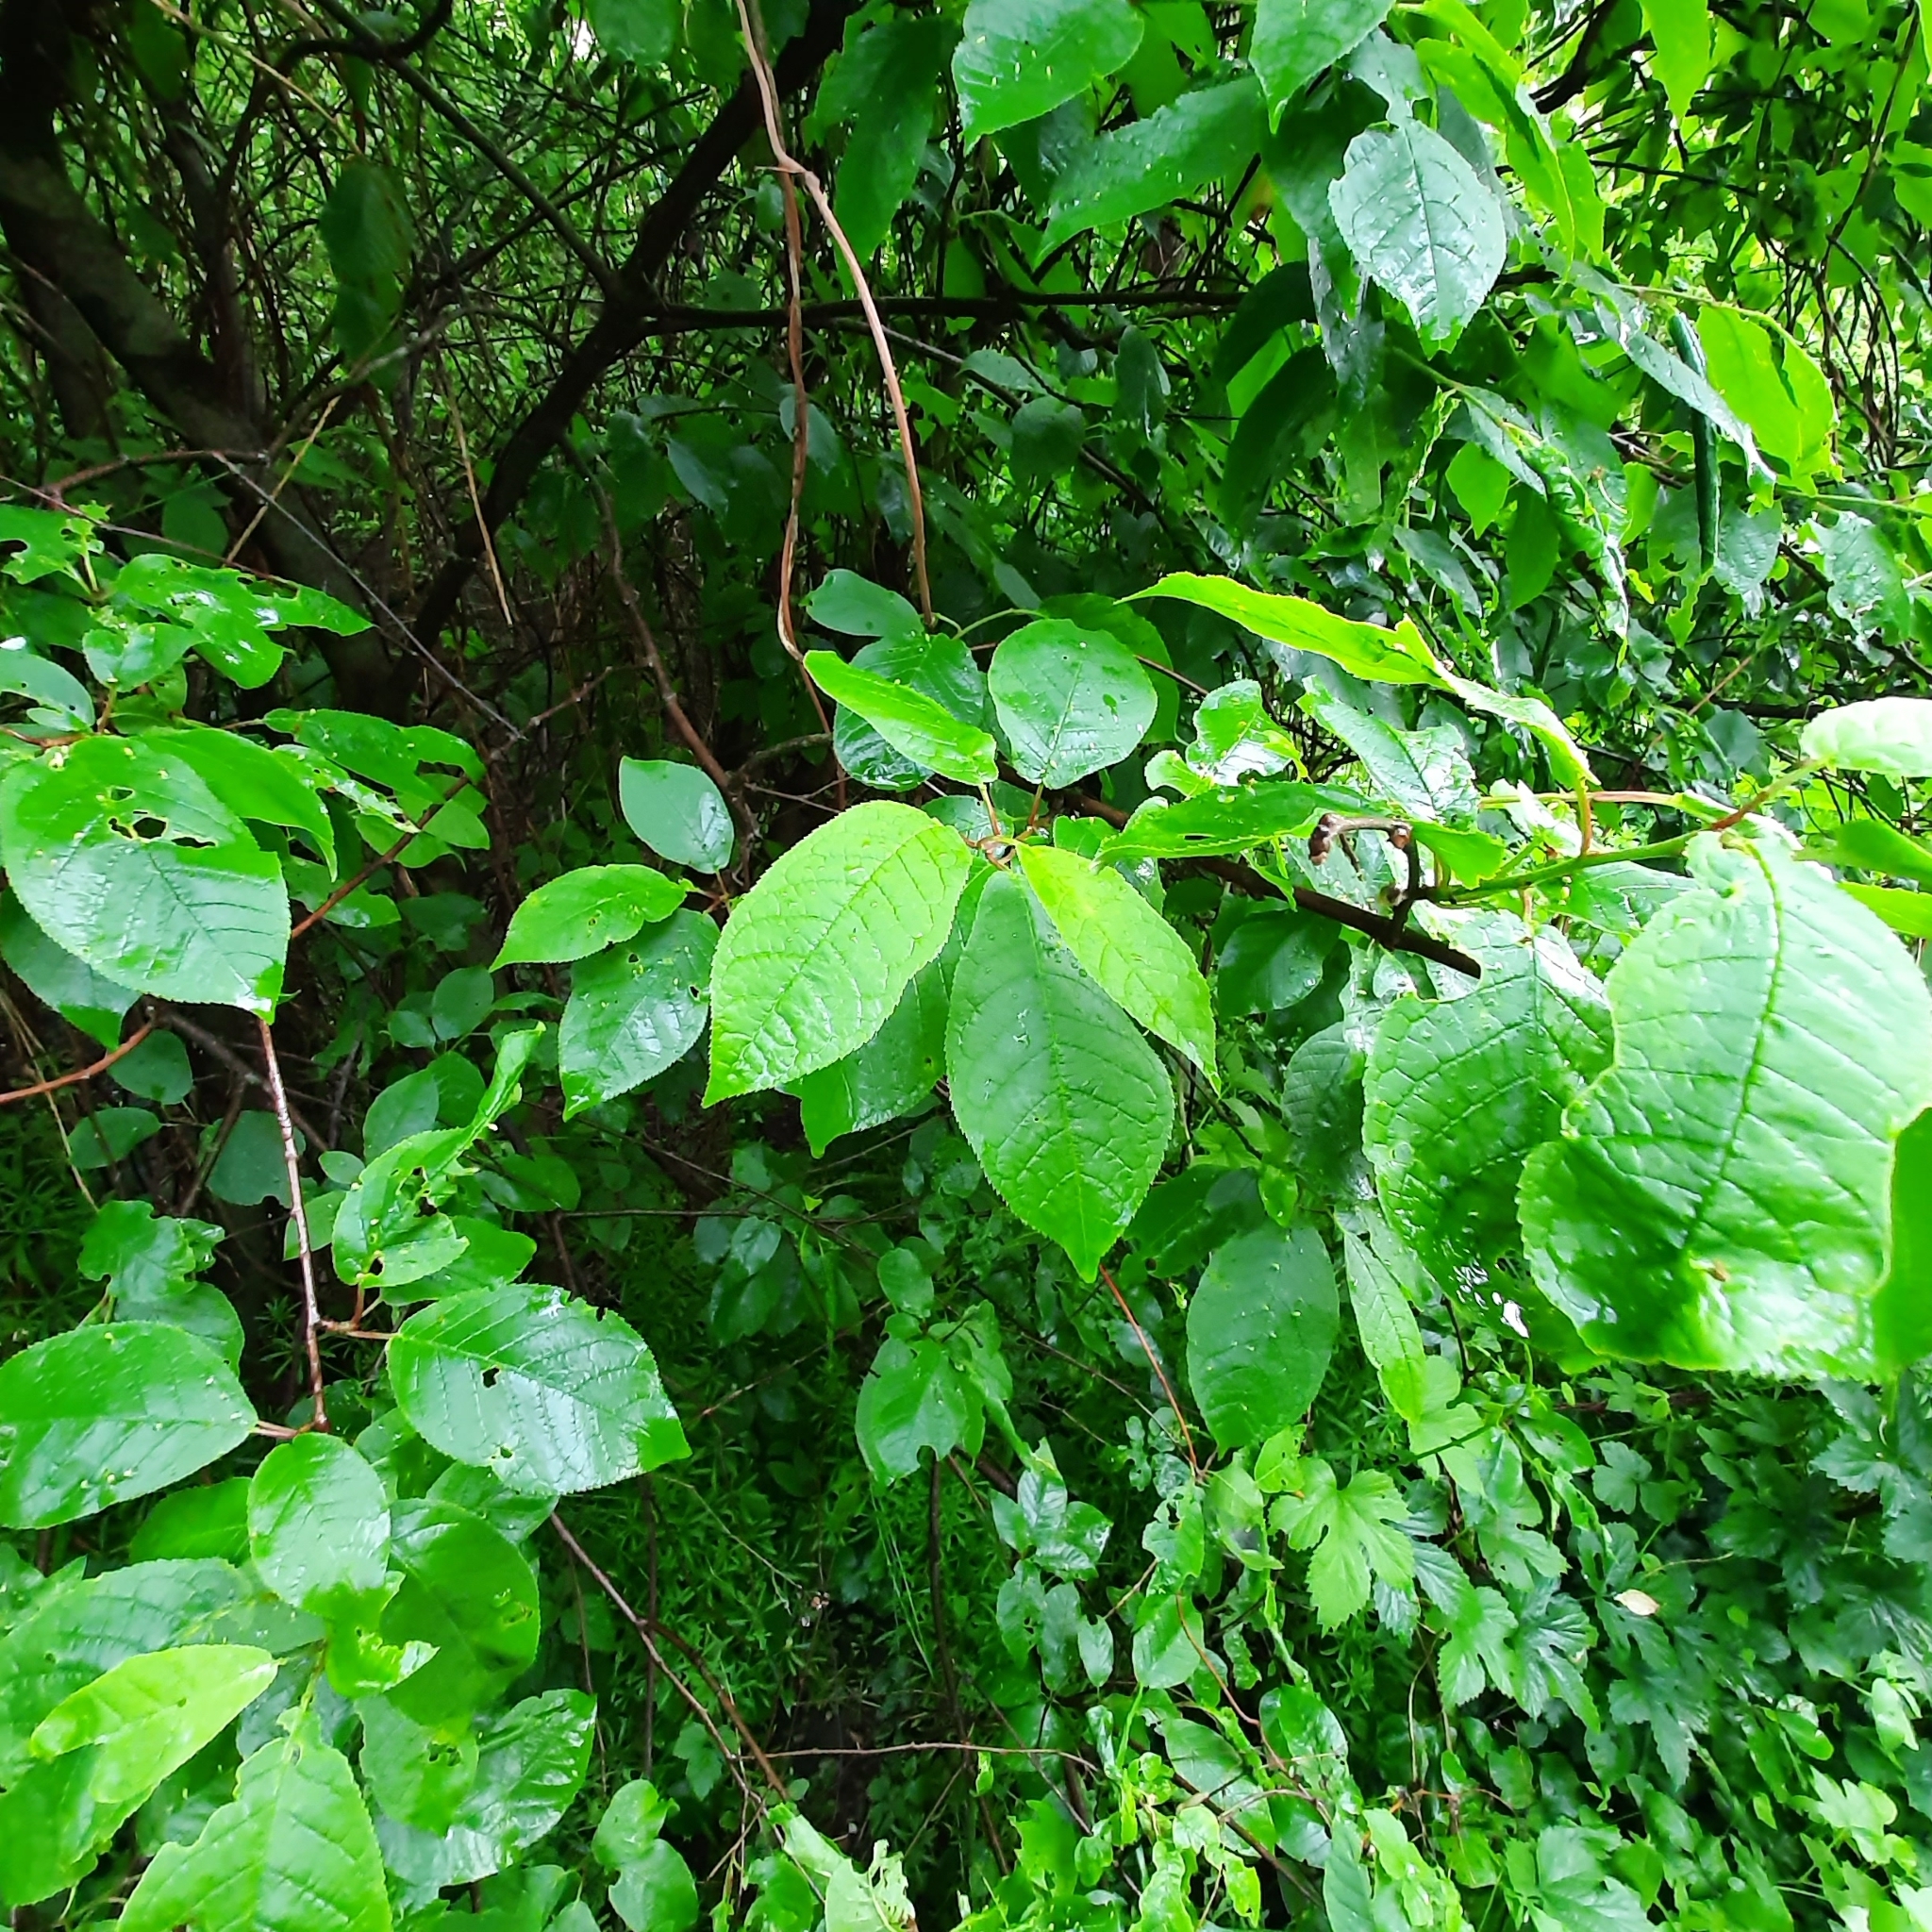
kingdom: Plantae
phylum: Tracheophyta
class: Magnoliopsida
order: Rosales
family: Rosaceae
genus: Prunus
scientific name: Prunus padus
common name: Bird cherry
